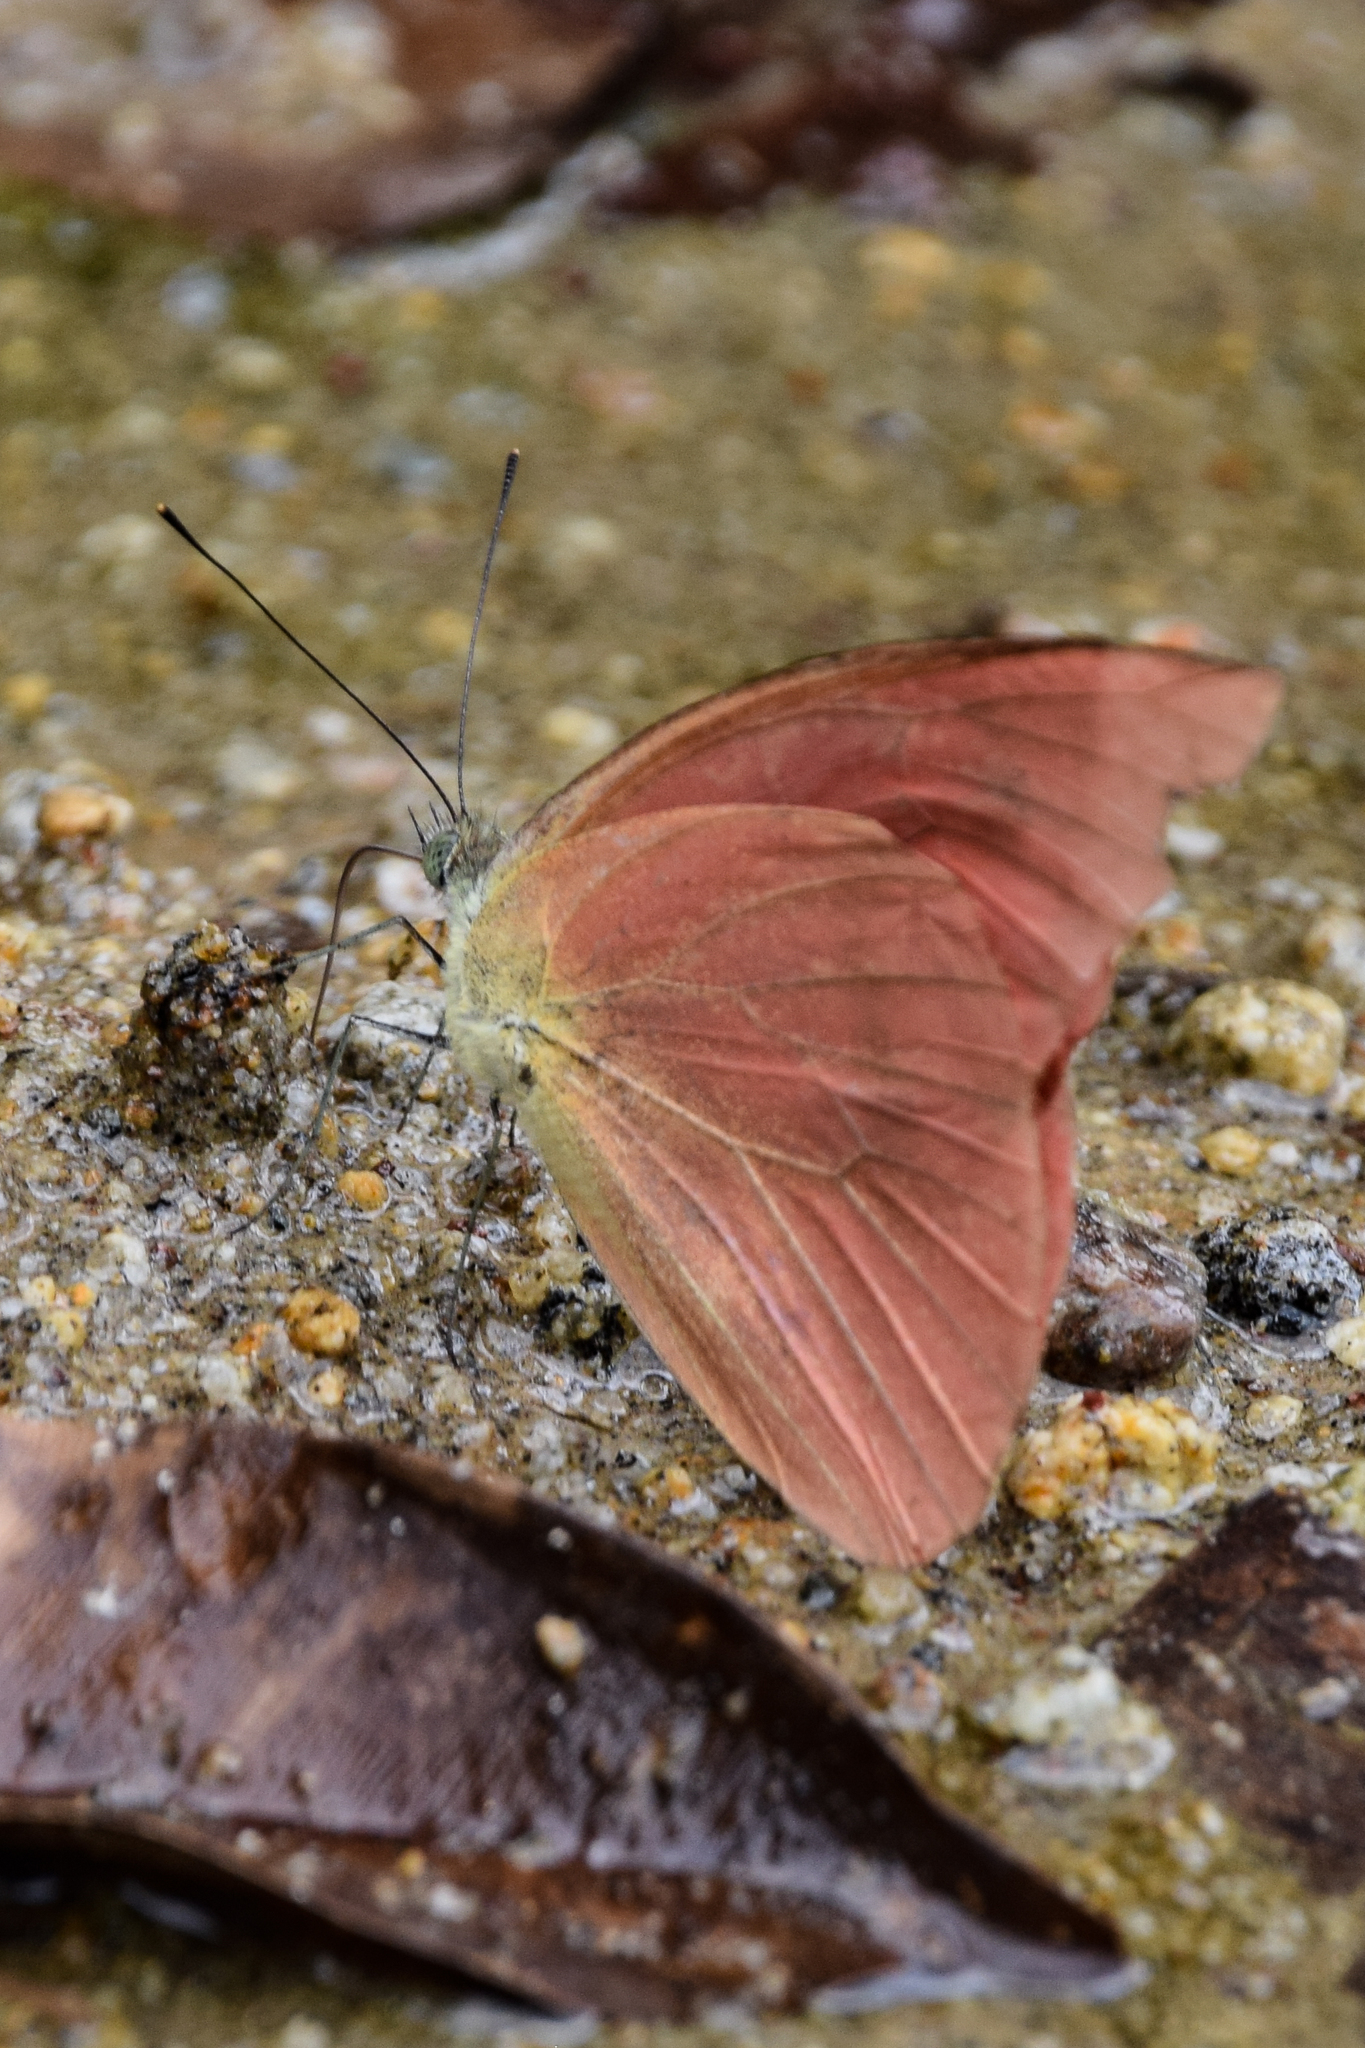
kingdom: Animalia
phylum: Arthropoda
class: Insecta
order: Lepidoptera
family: Pieridae
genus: Appias
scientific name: Appias zarinda
